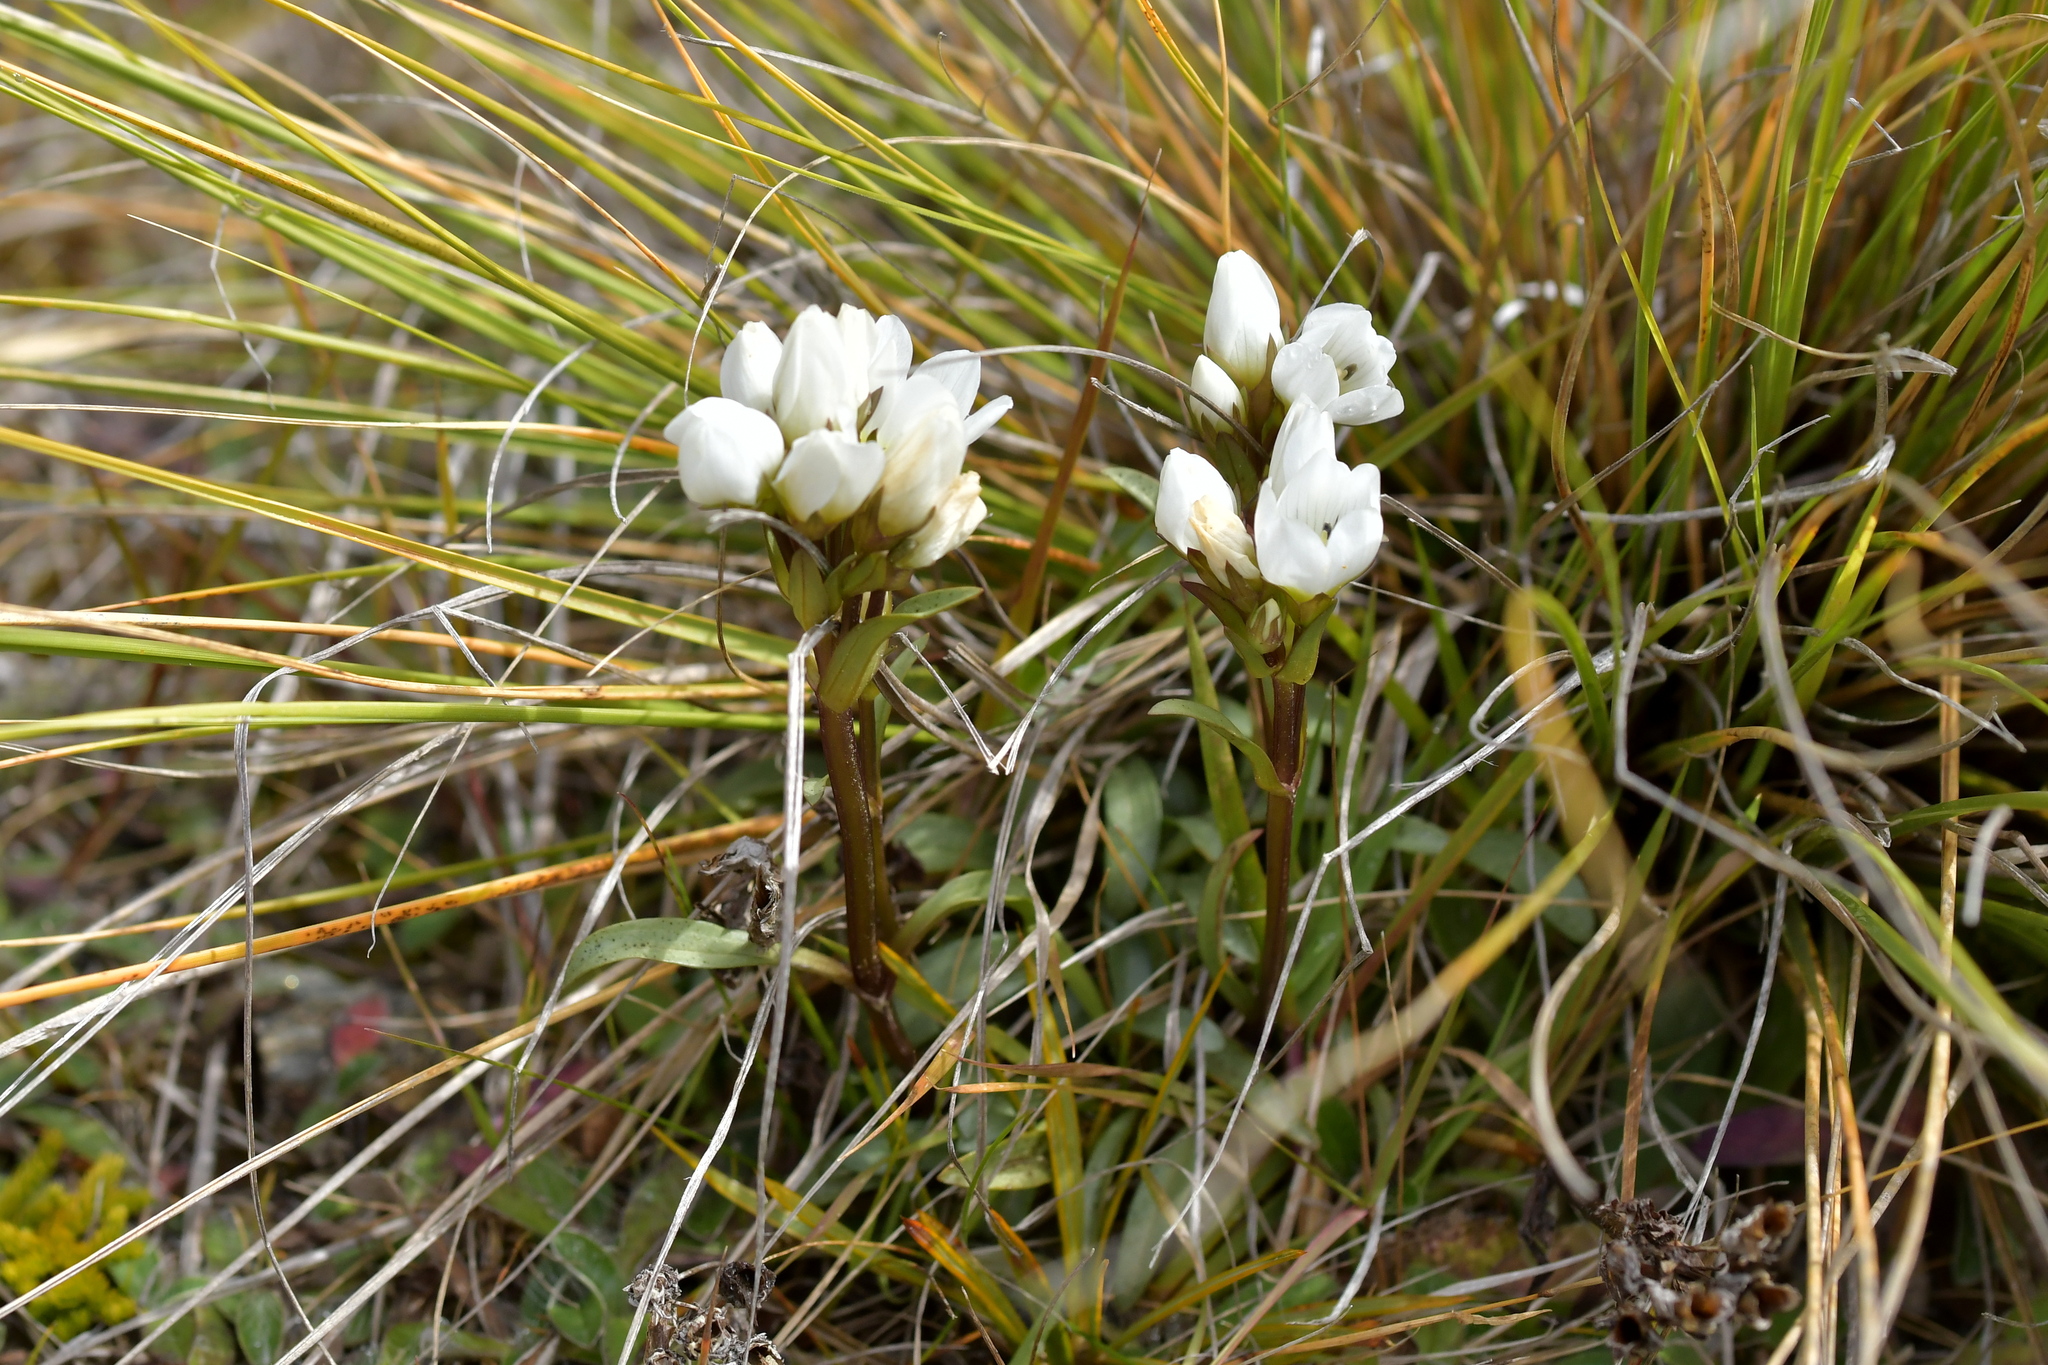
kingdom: Plantae
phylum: Tracheophyta
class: Magnoliopsida
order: Gentianales
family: Gentianaceae
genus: Gentianella
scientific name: Gentianella bellidifolia
